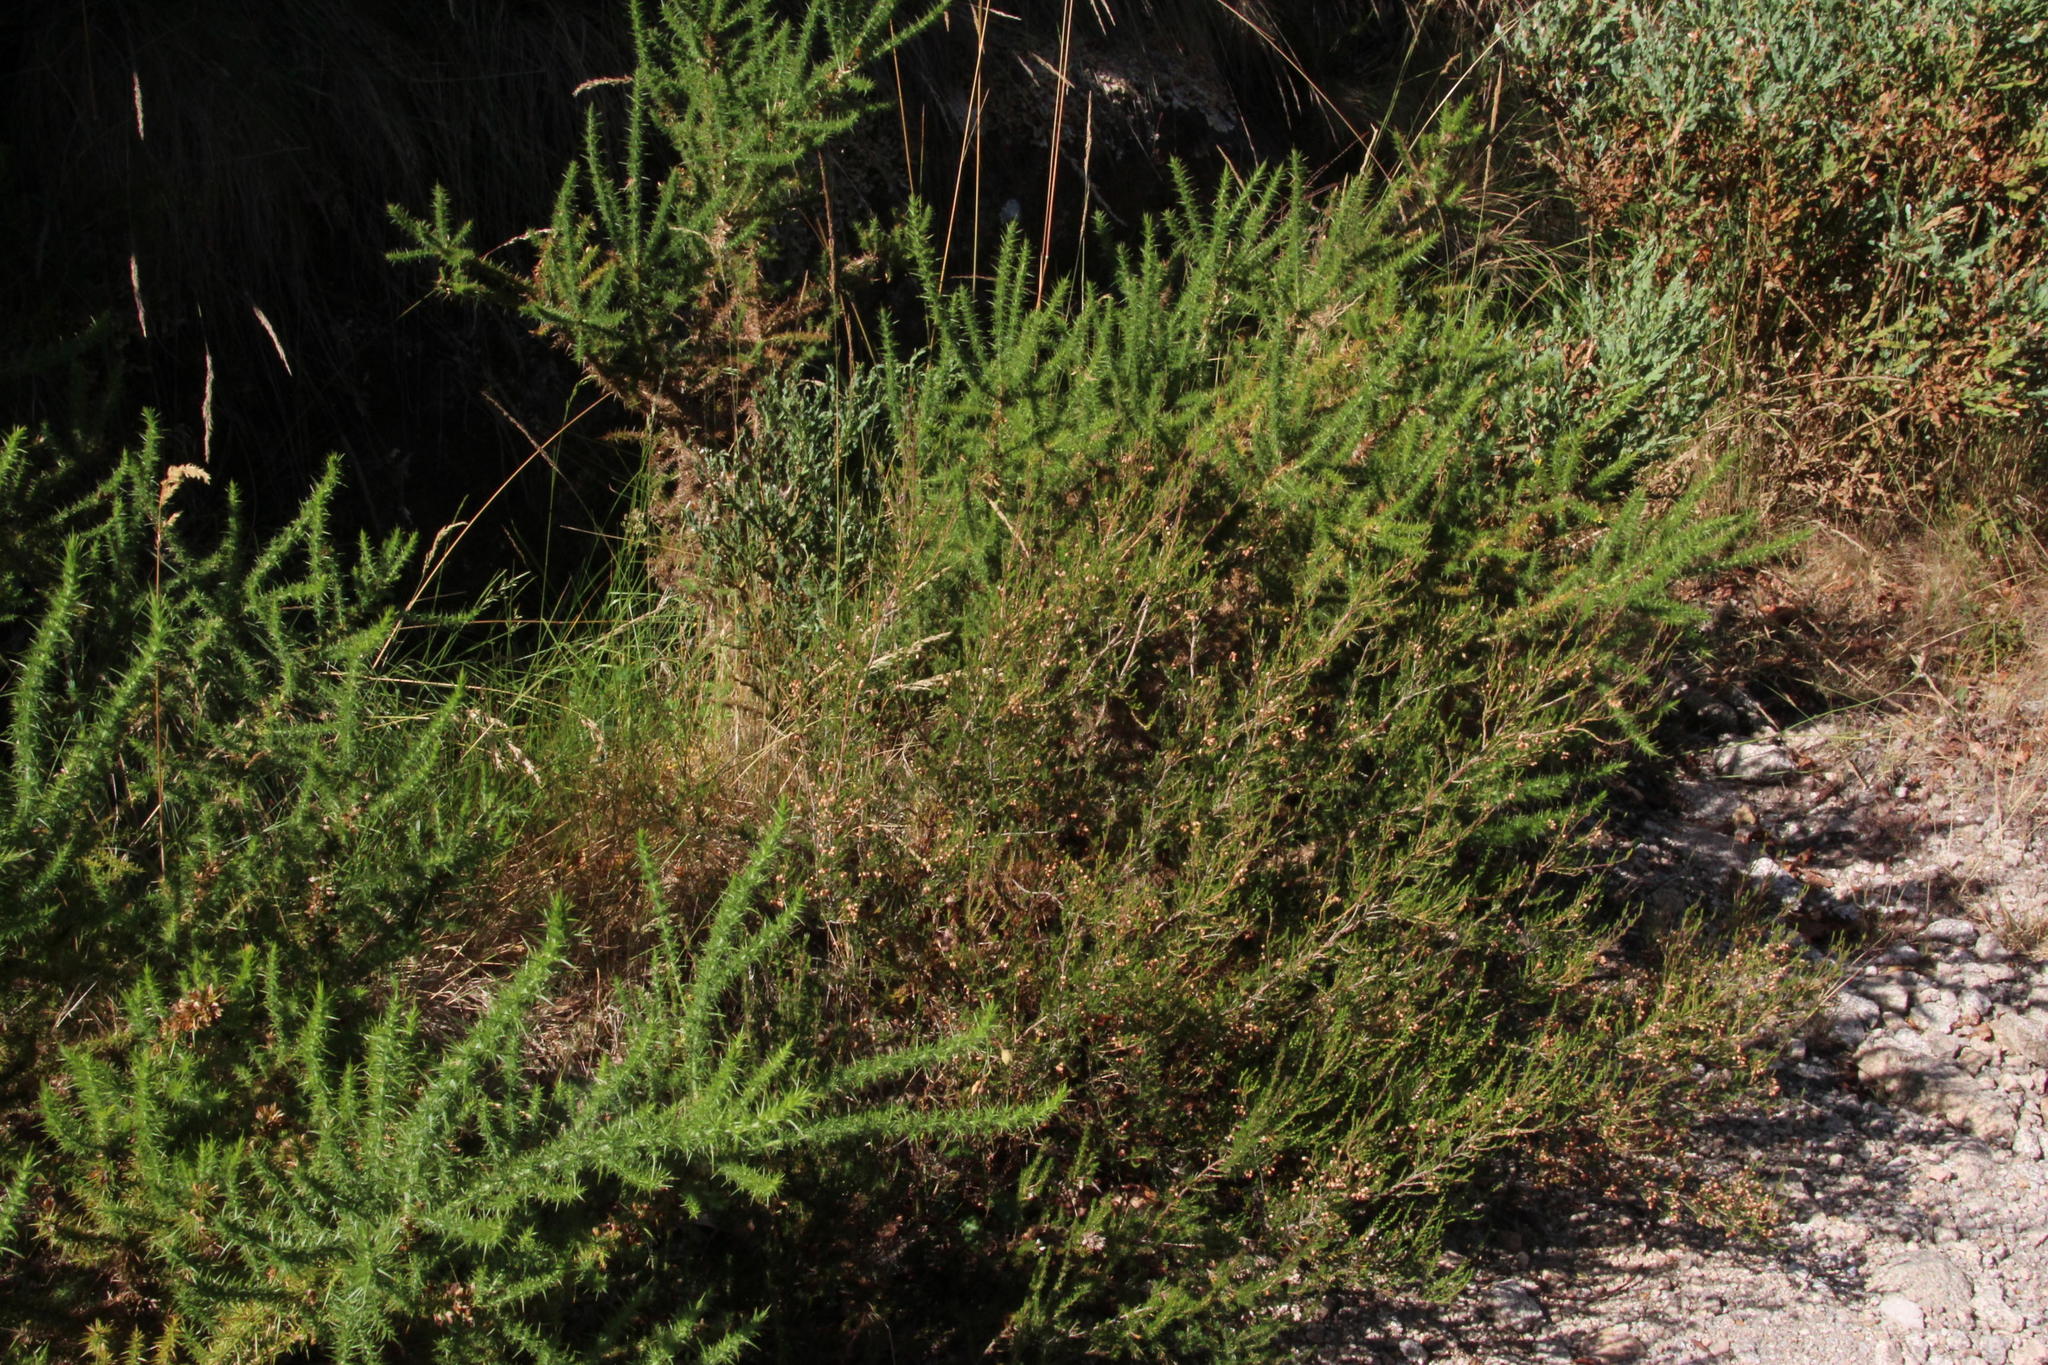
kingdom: Plantae
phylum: Tracheophyta
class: Magnoliopsida
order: Ericales
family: Ericaceae
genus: Erica
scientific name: Erica umbellata
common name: Dwarf spanish heath
